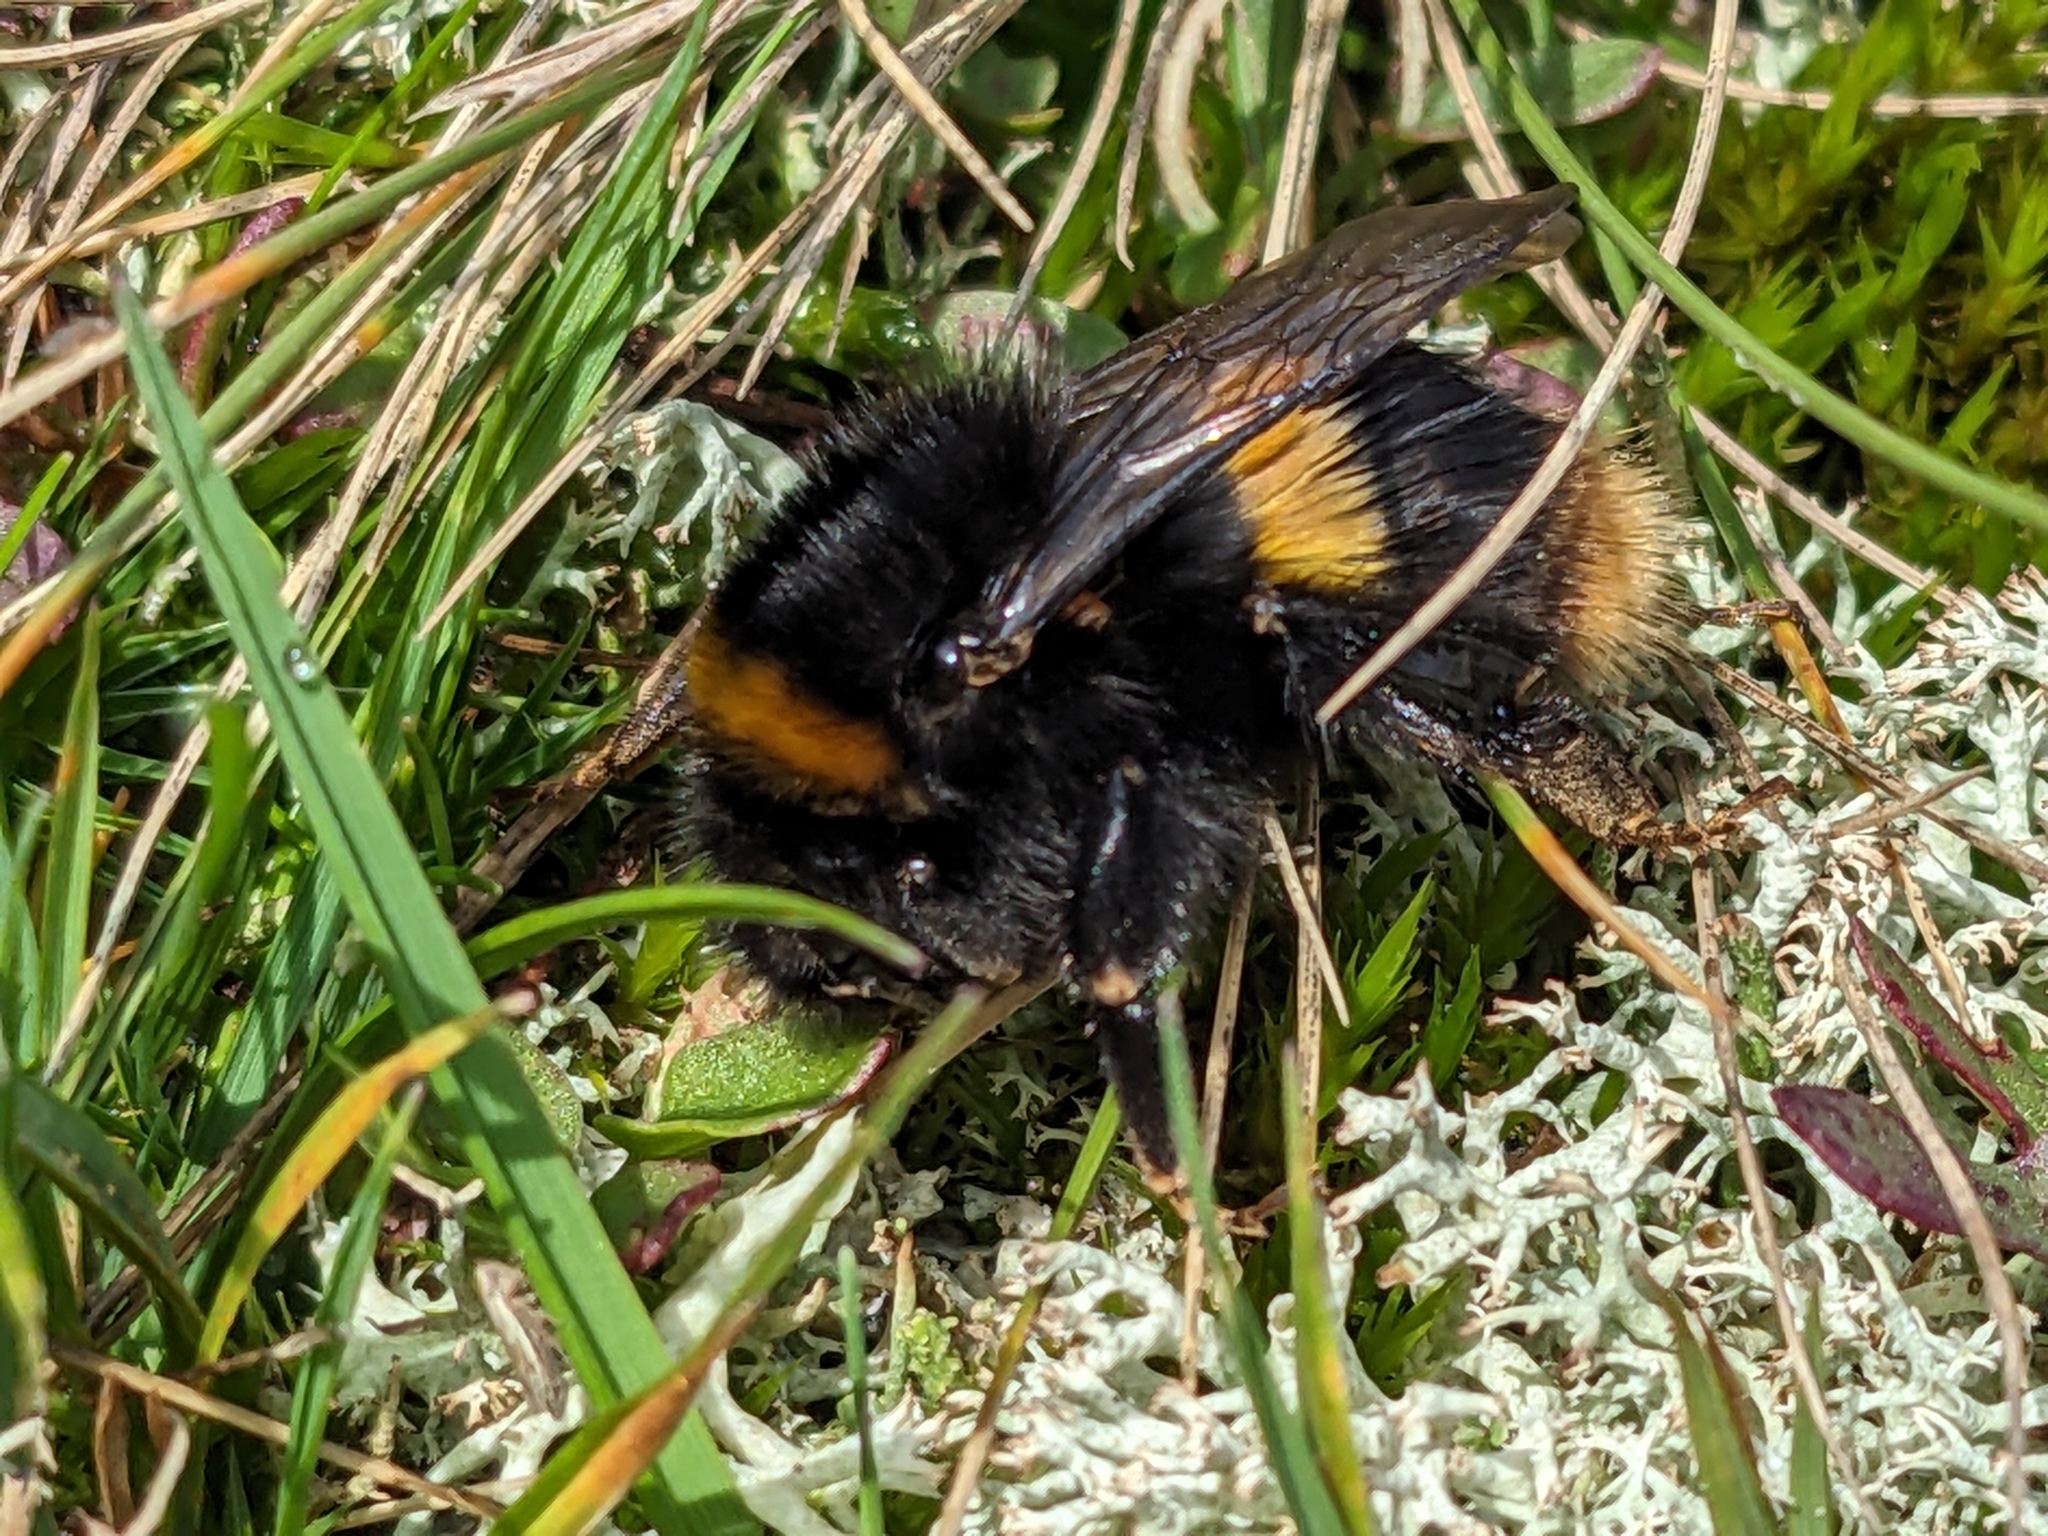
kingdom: Animalia
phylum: Arthropoda
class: Insecta
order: Hymenoptera
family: Apidae
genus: Bombus
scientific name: Bombus terrestris
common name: Buff-tailed bumblebee
